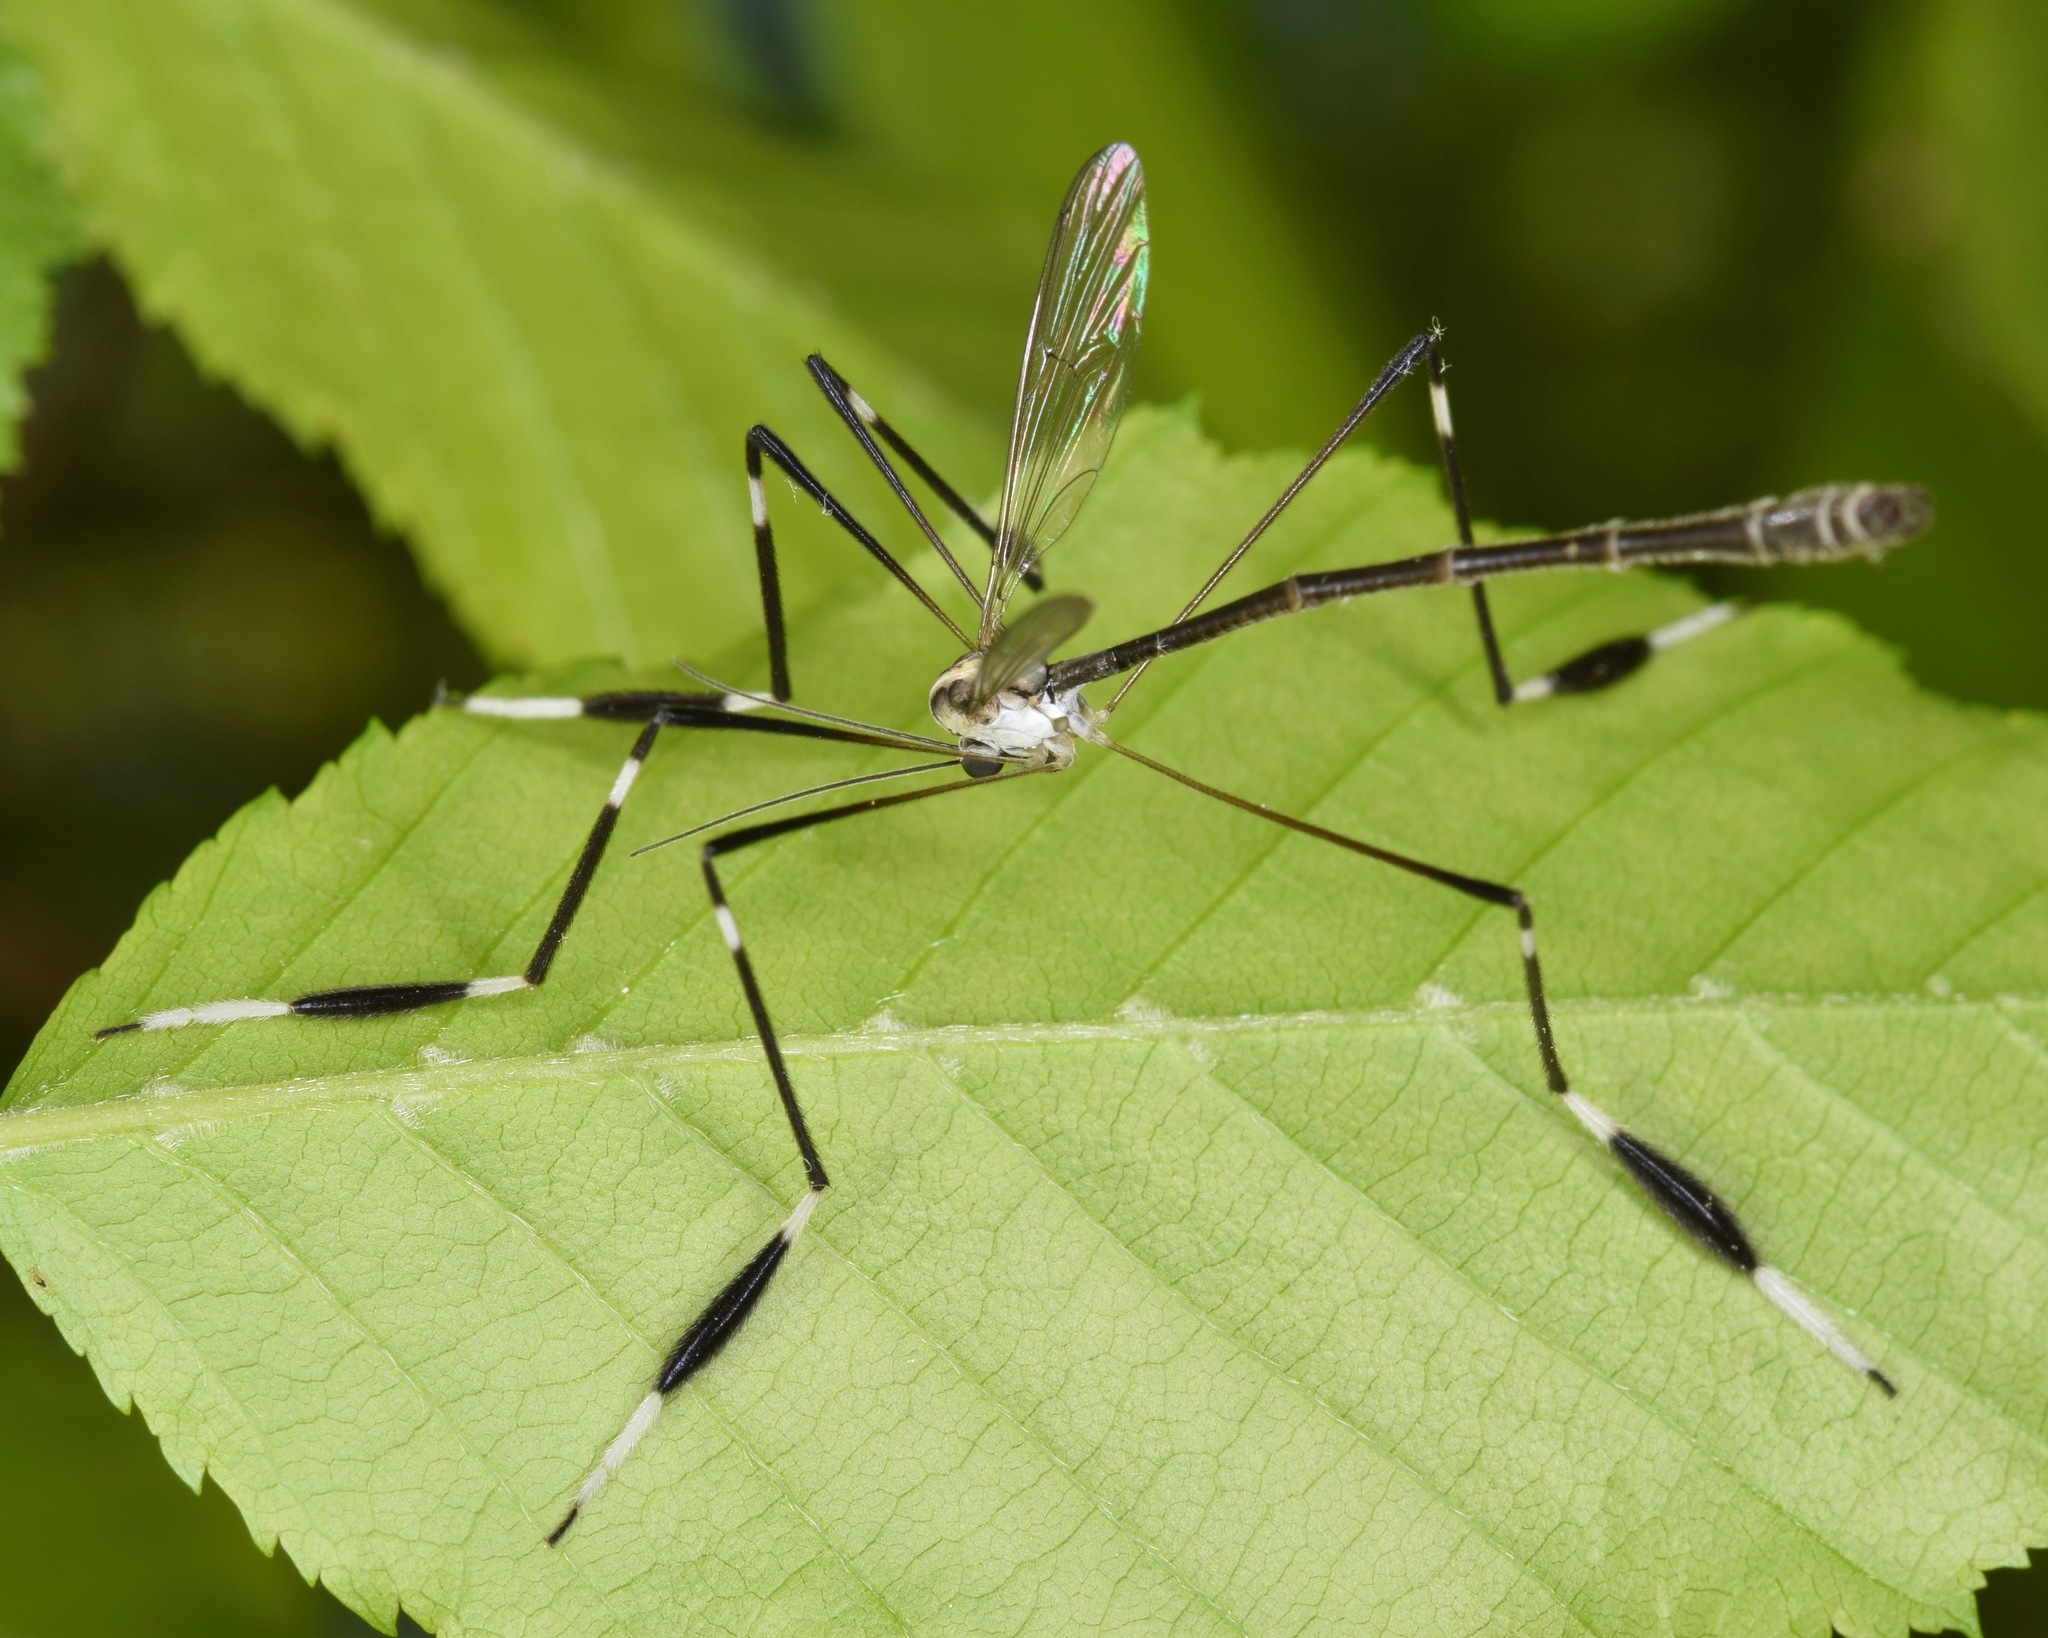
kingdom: Animalia
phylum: Arthropoda
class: Insecta
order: Diptera
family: Ptychopteridae
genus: Bittacomorpha
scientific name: Bittacomorpha clavipes
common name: Eastern phantom crane fly
